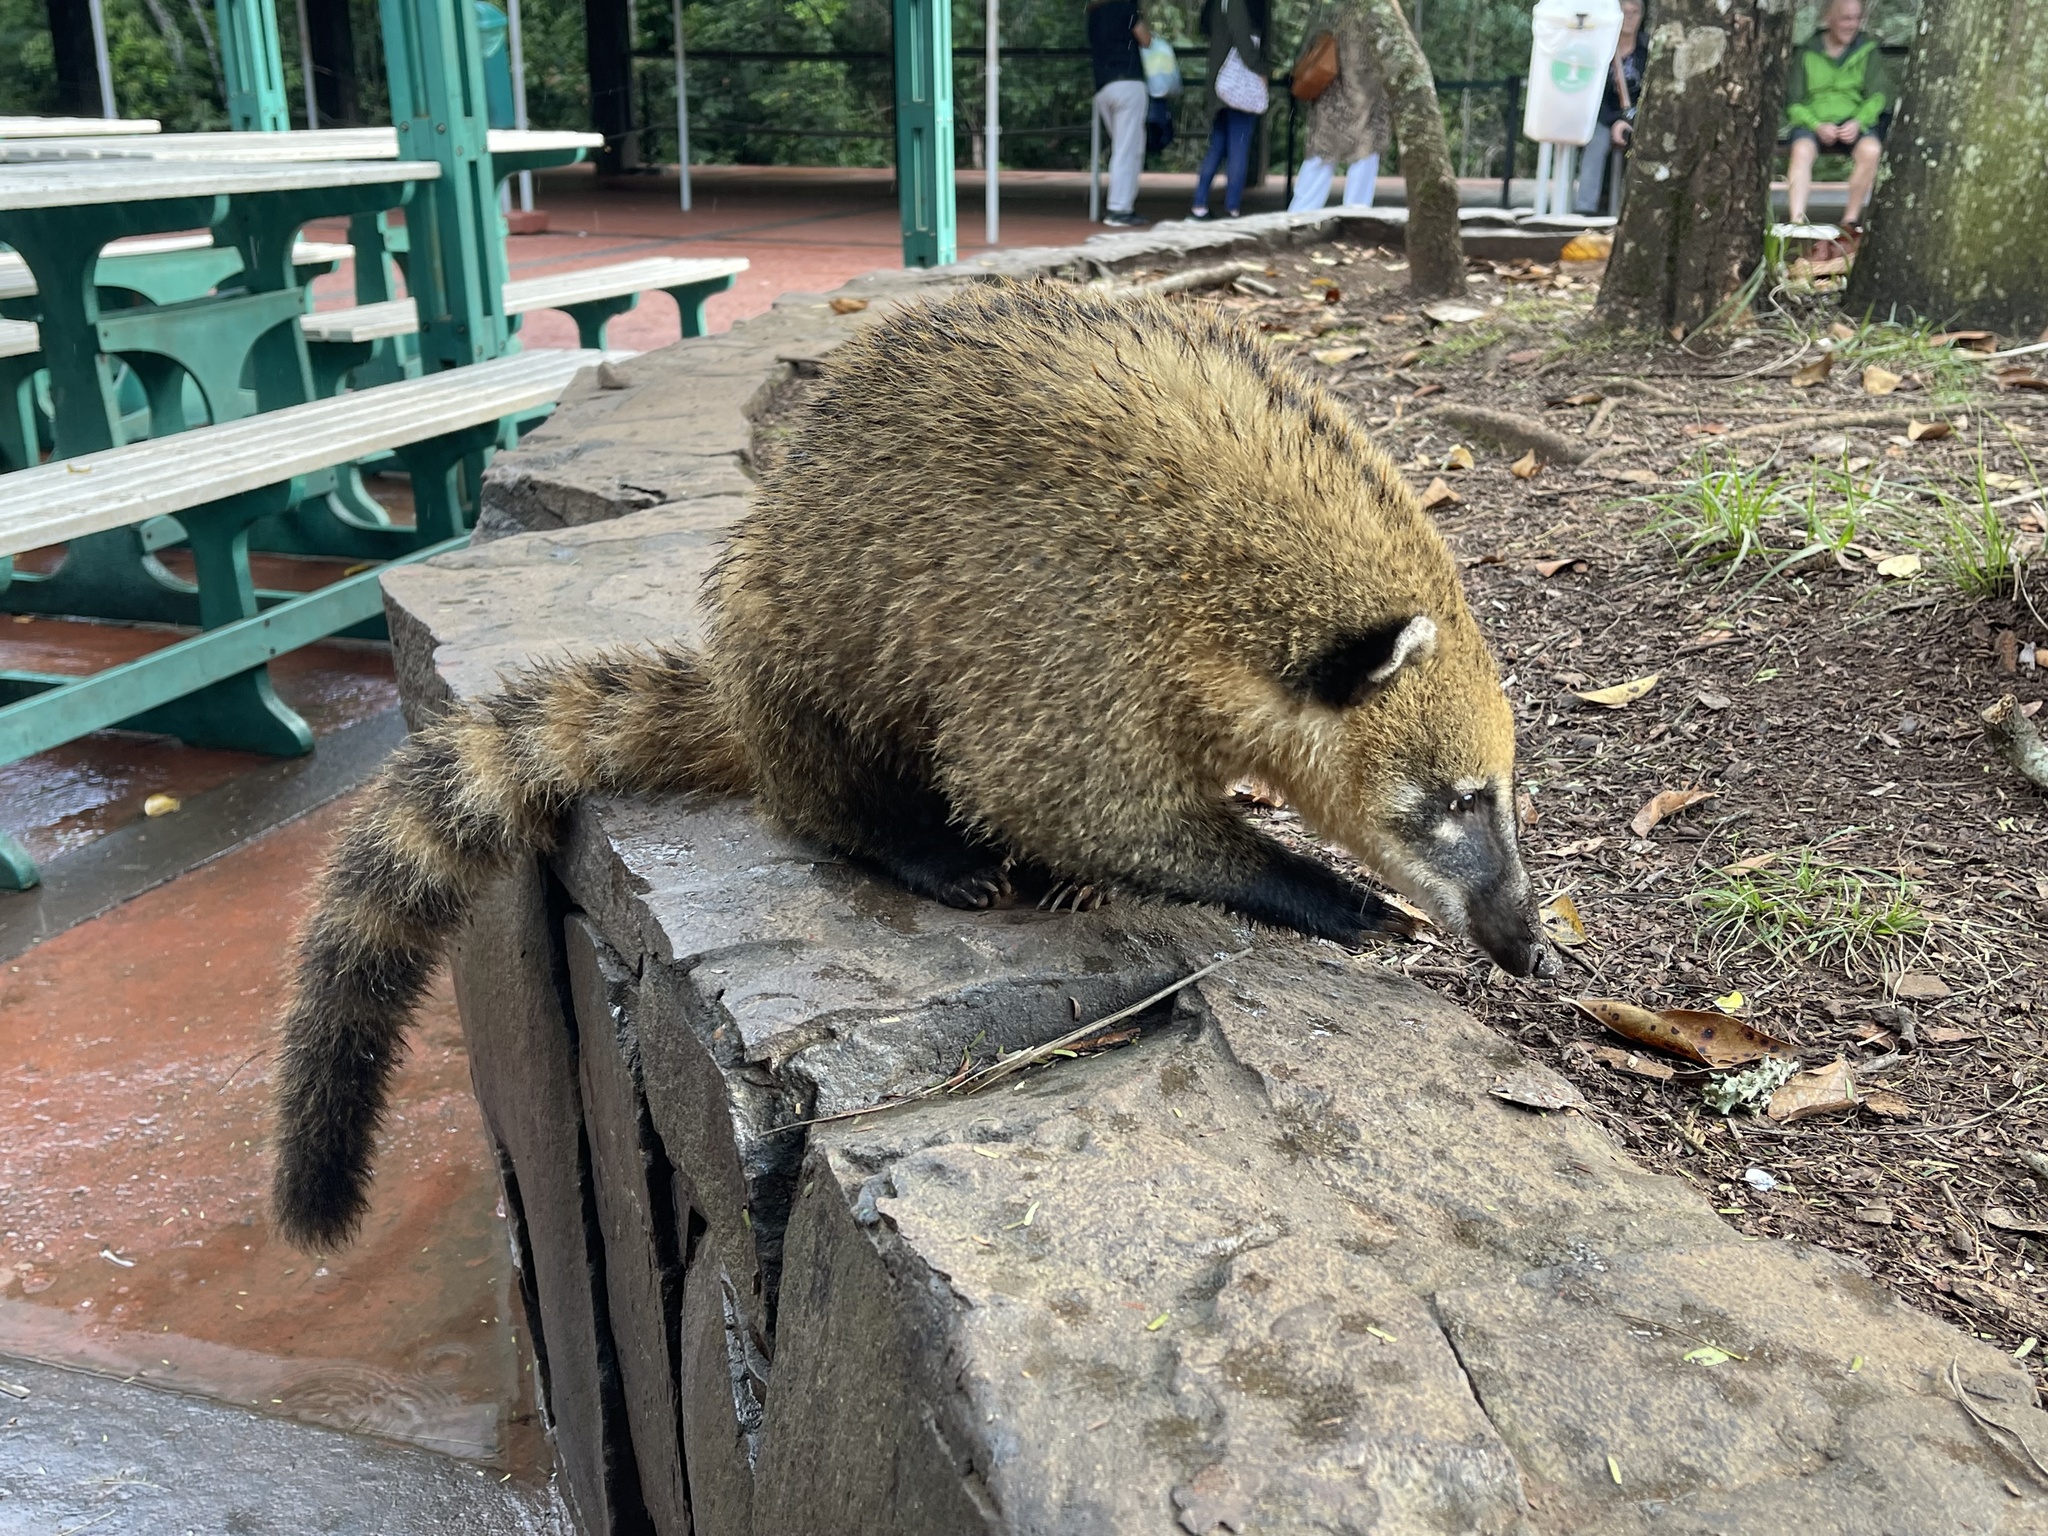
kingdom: Animalia
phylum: Chordata
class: Mammalia
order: Carnivora
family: Procyonidae
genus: Nasua
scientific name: Nasua nasua
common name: South american coati
